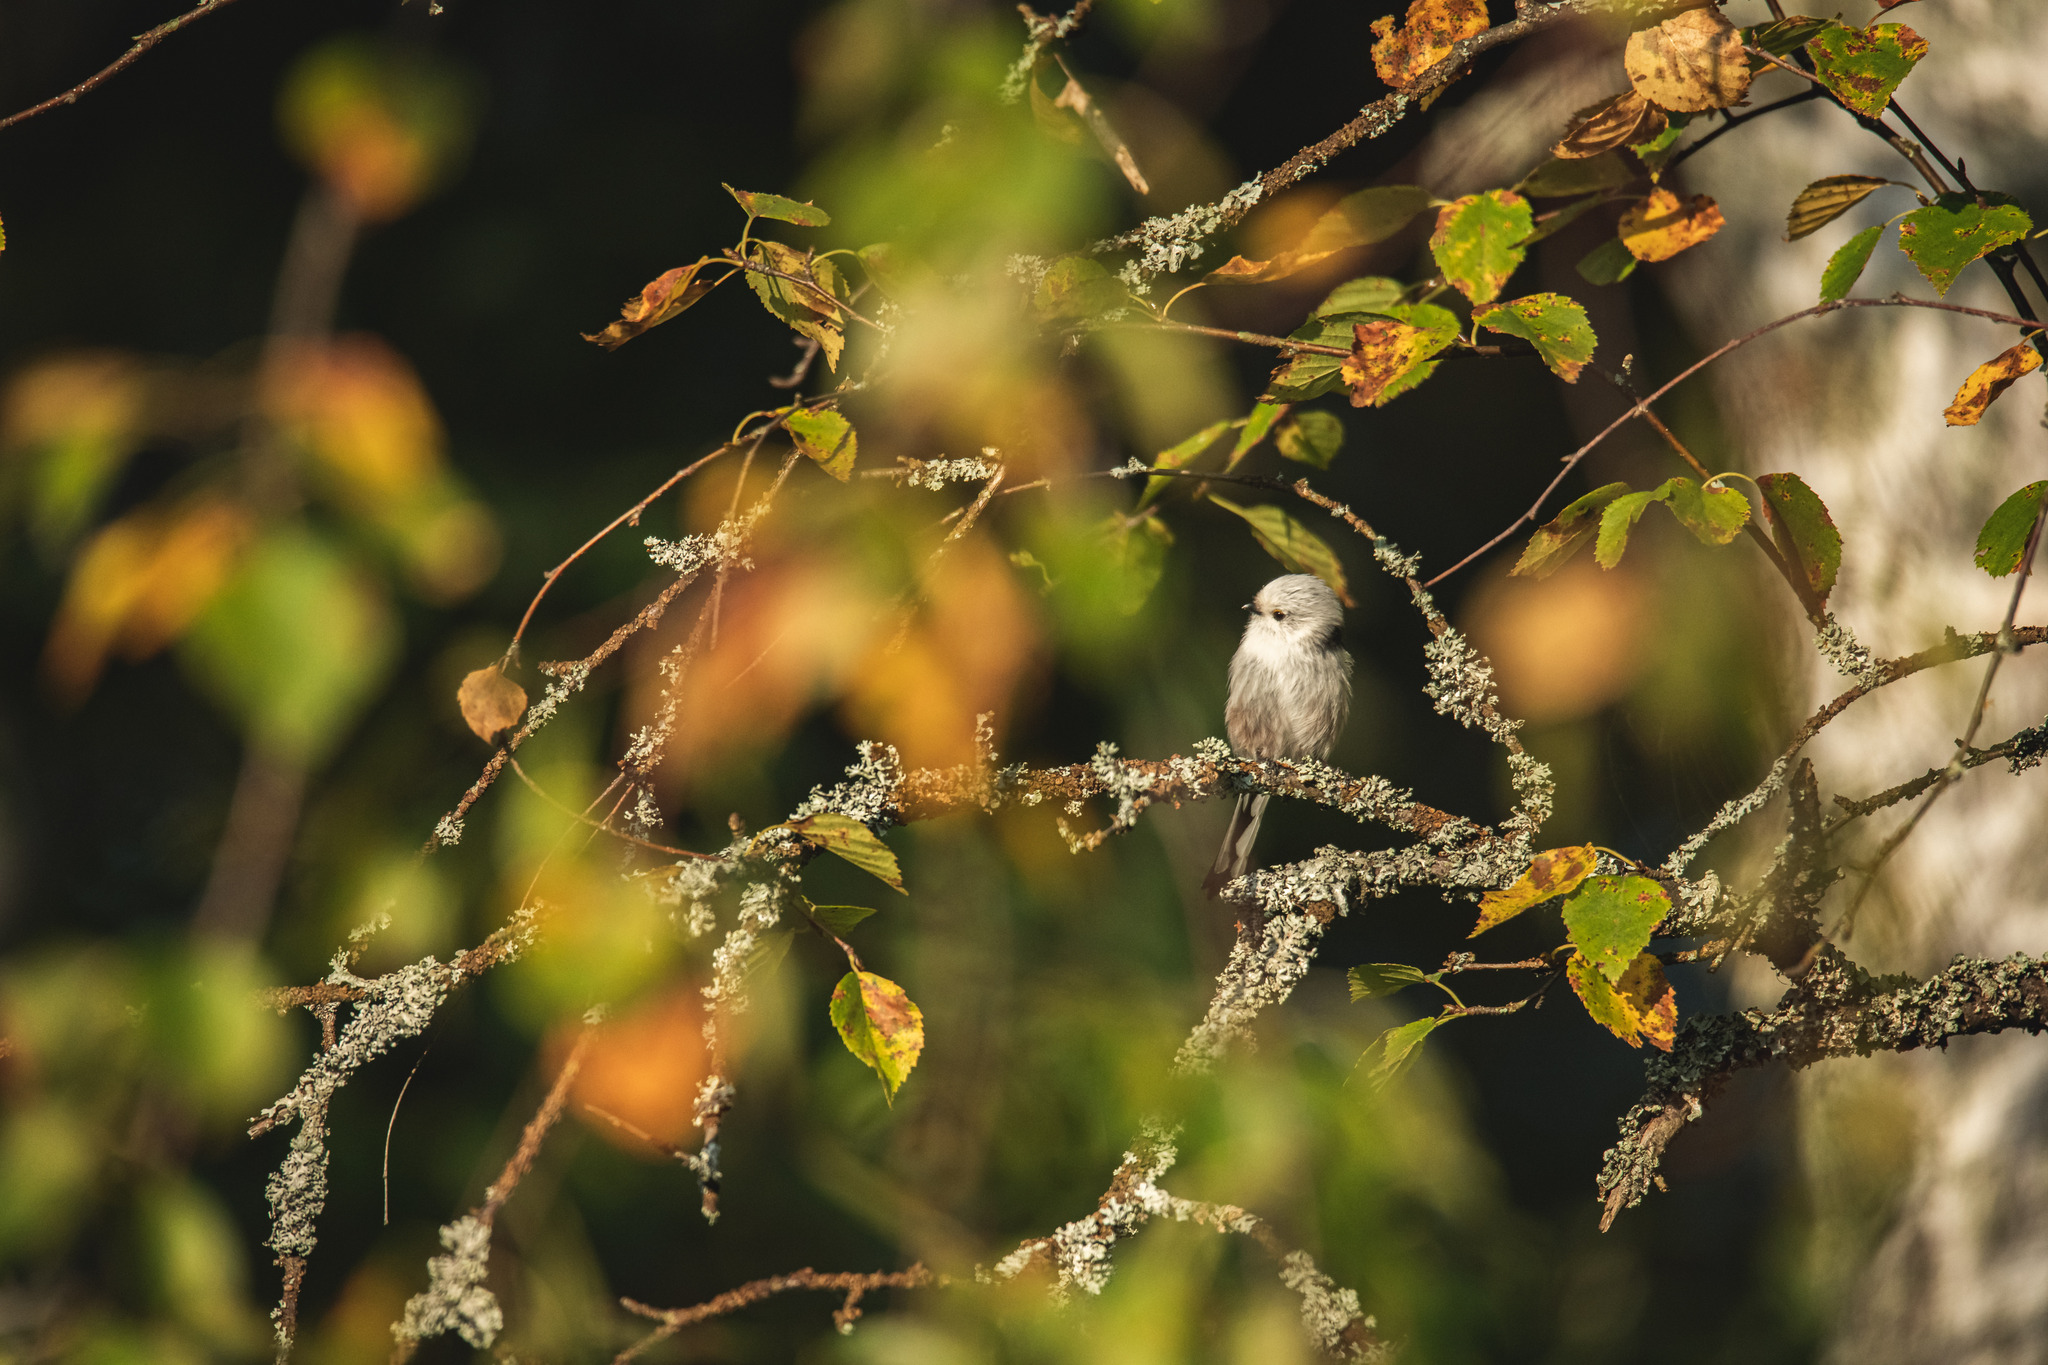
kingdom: Animalia
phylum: Chordata
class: Aves
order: Passeriformes
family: Aegithalidae
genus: Aegithalos
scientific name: Aegithalos caudatus
